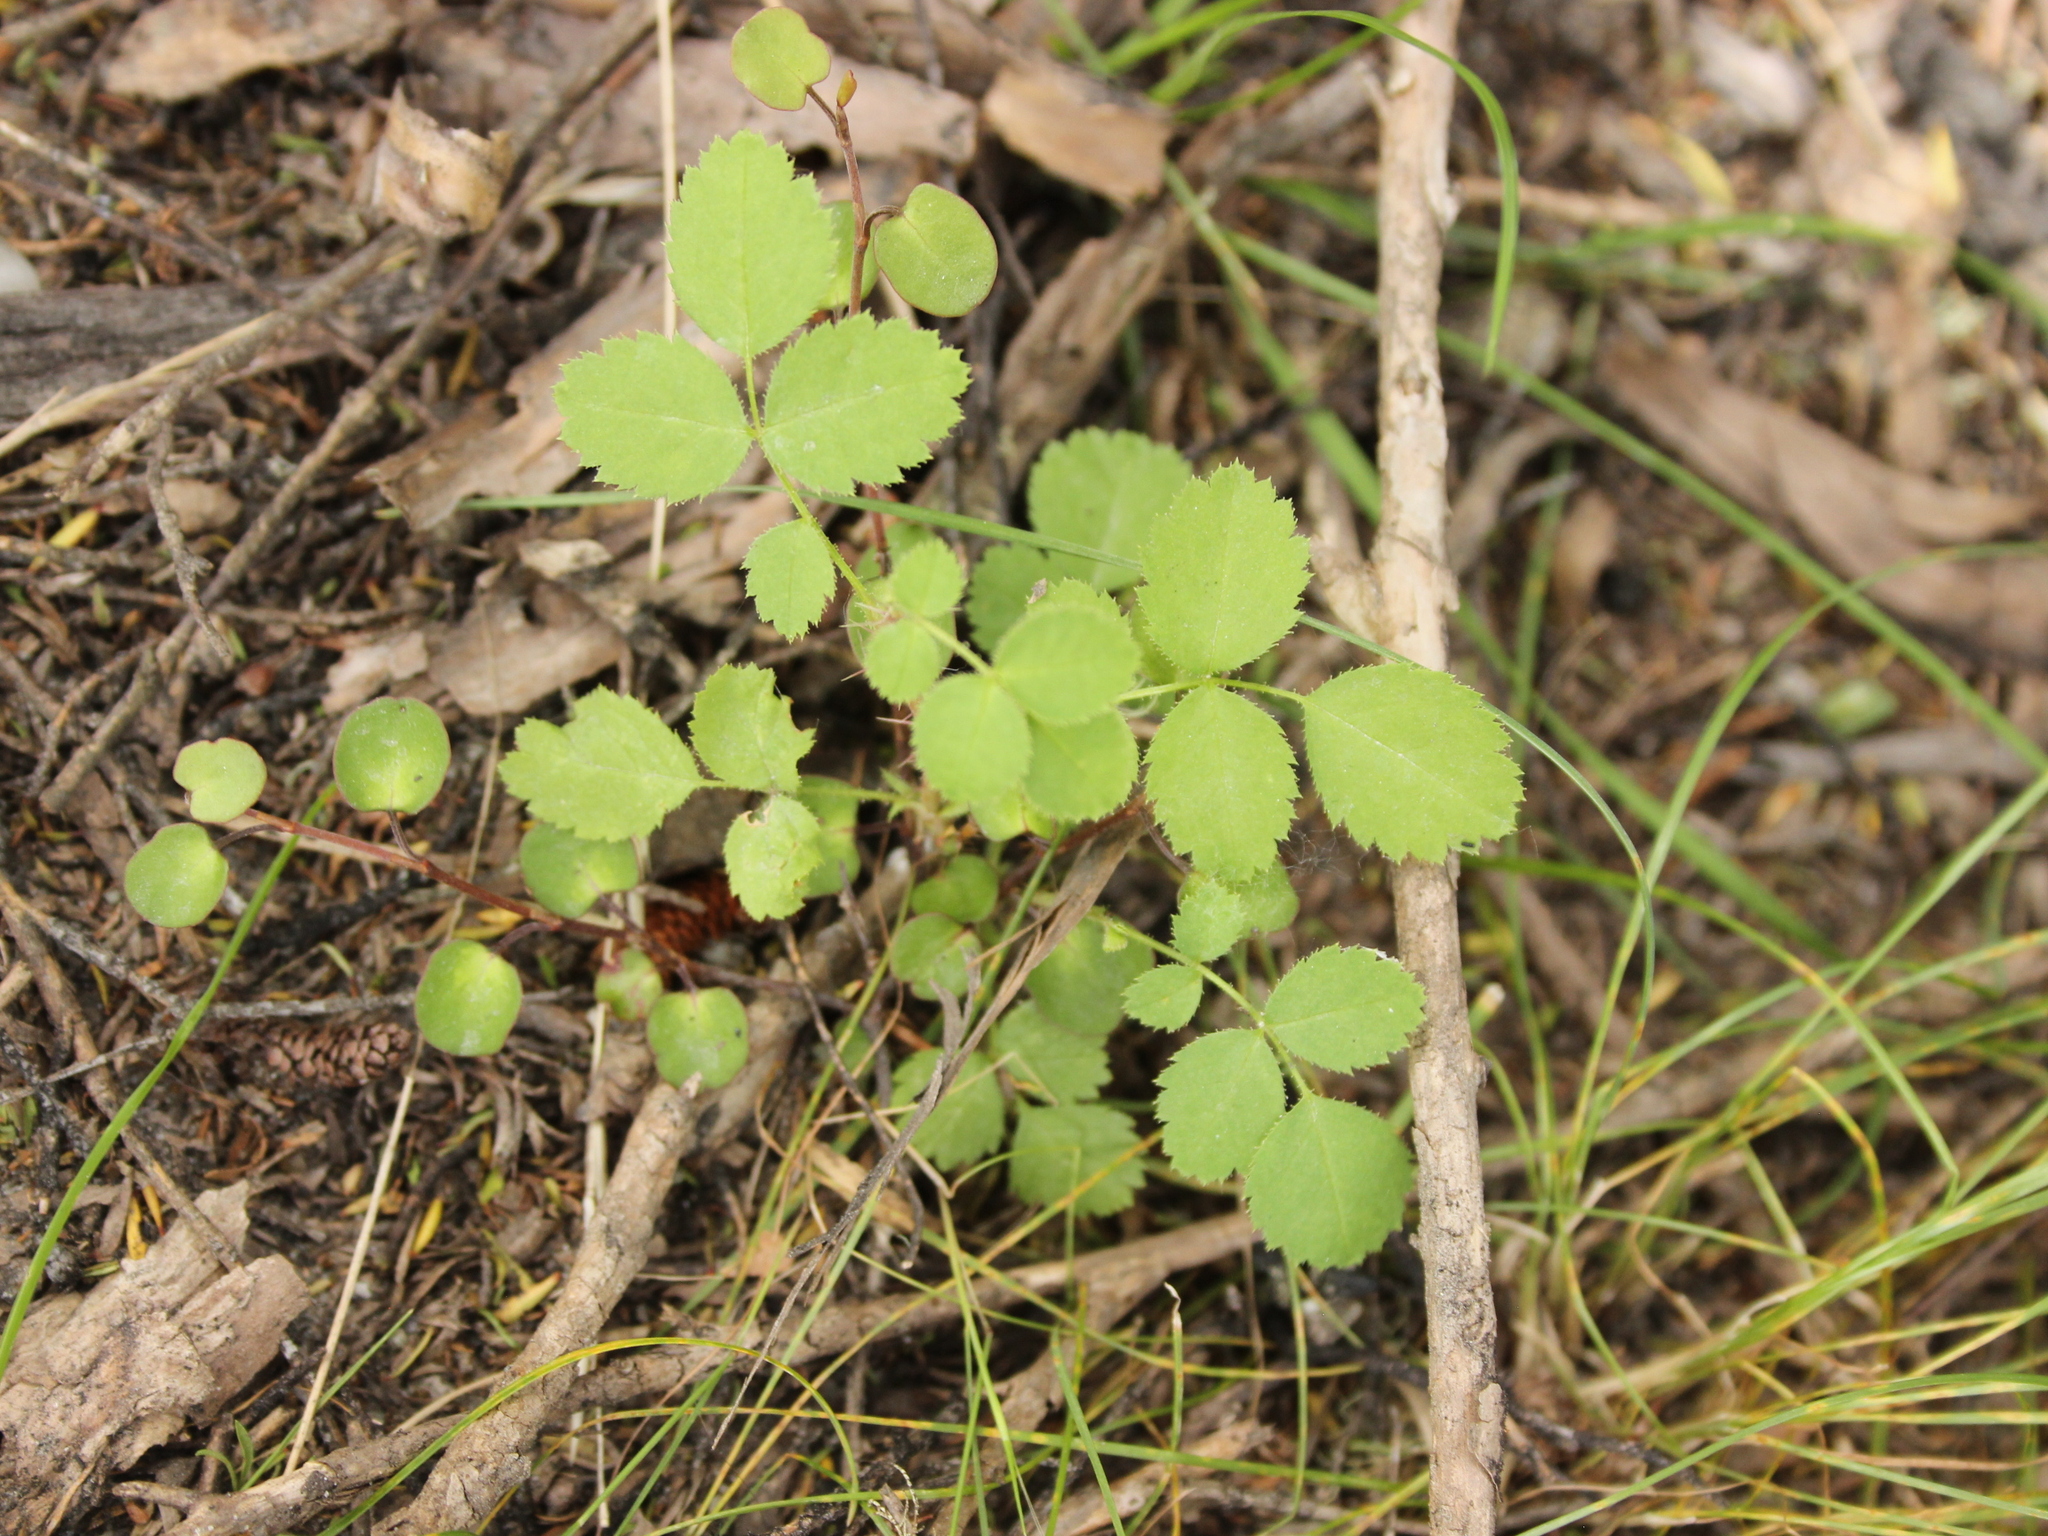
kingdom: Plantae
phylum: Tracheophyta
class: Magnoliopsida
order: Rosales
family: Rosaceae
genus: Rosa
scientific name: Rosa rubiginosa
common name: Sweet-briar
